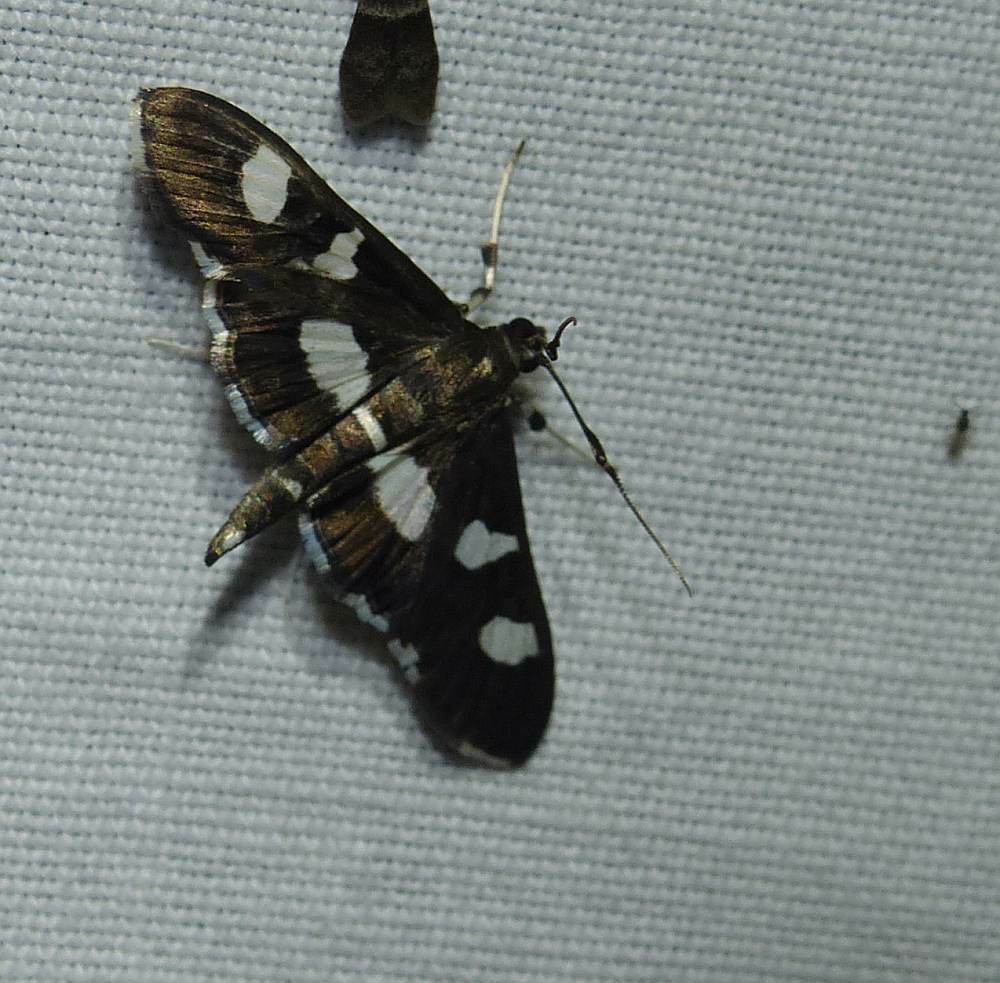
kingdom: Animalia
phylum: Arthropoda
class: Insecta
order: Lepidoptera
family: Crambidae
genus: Desmia
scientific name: Desmia
